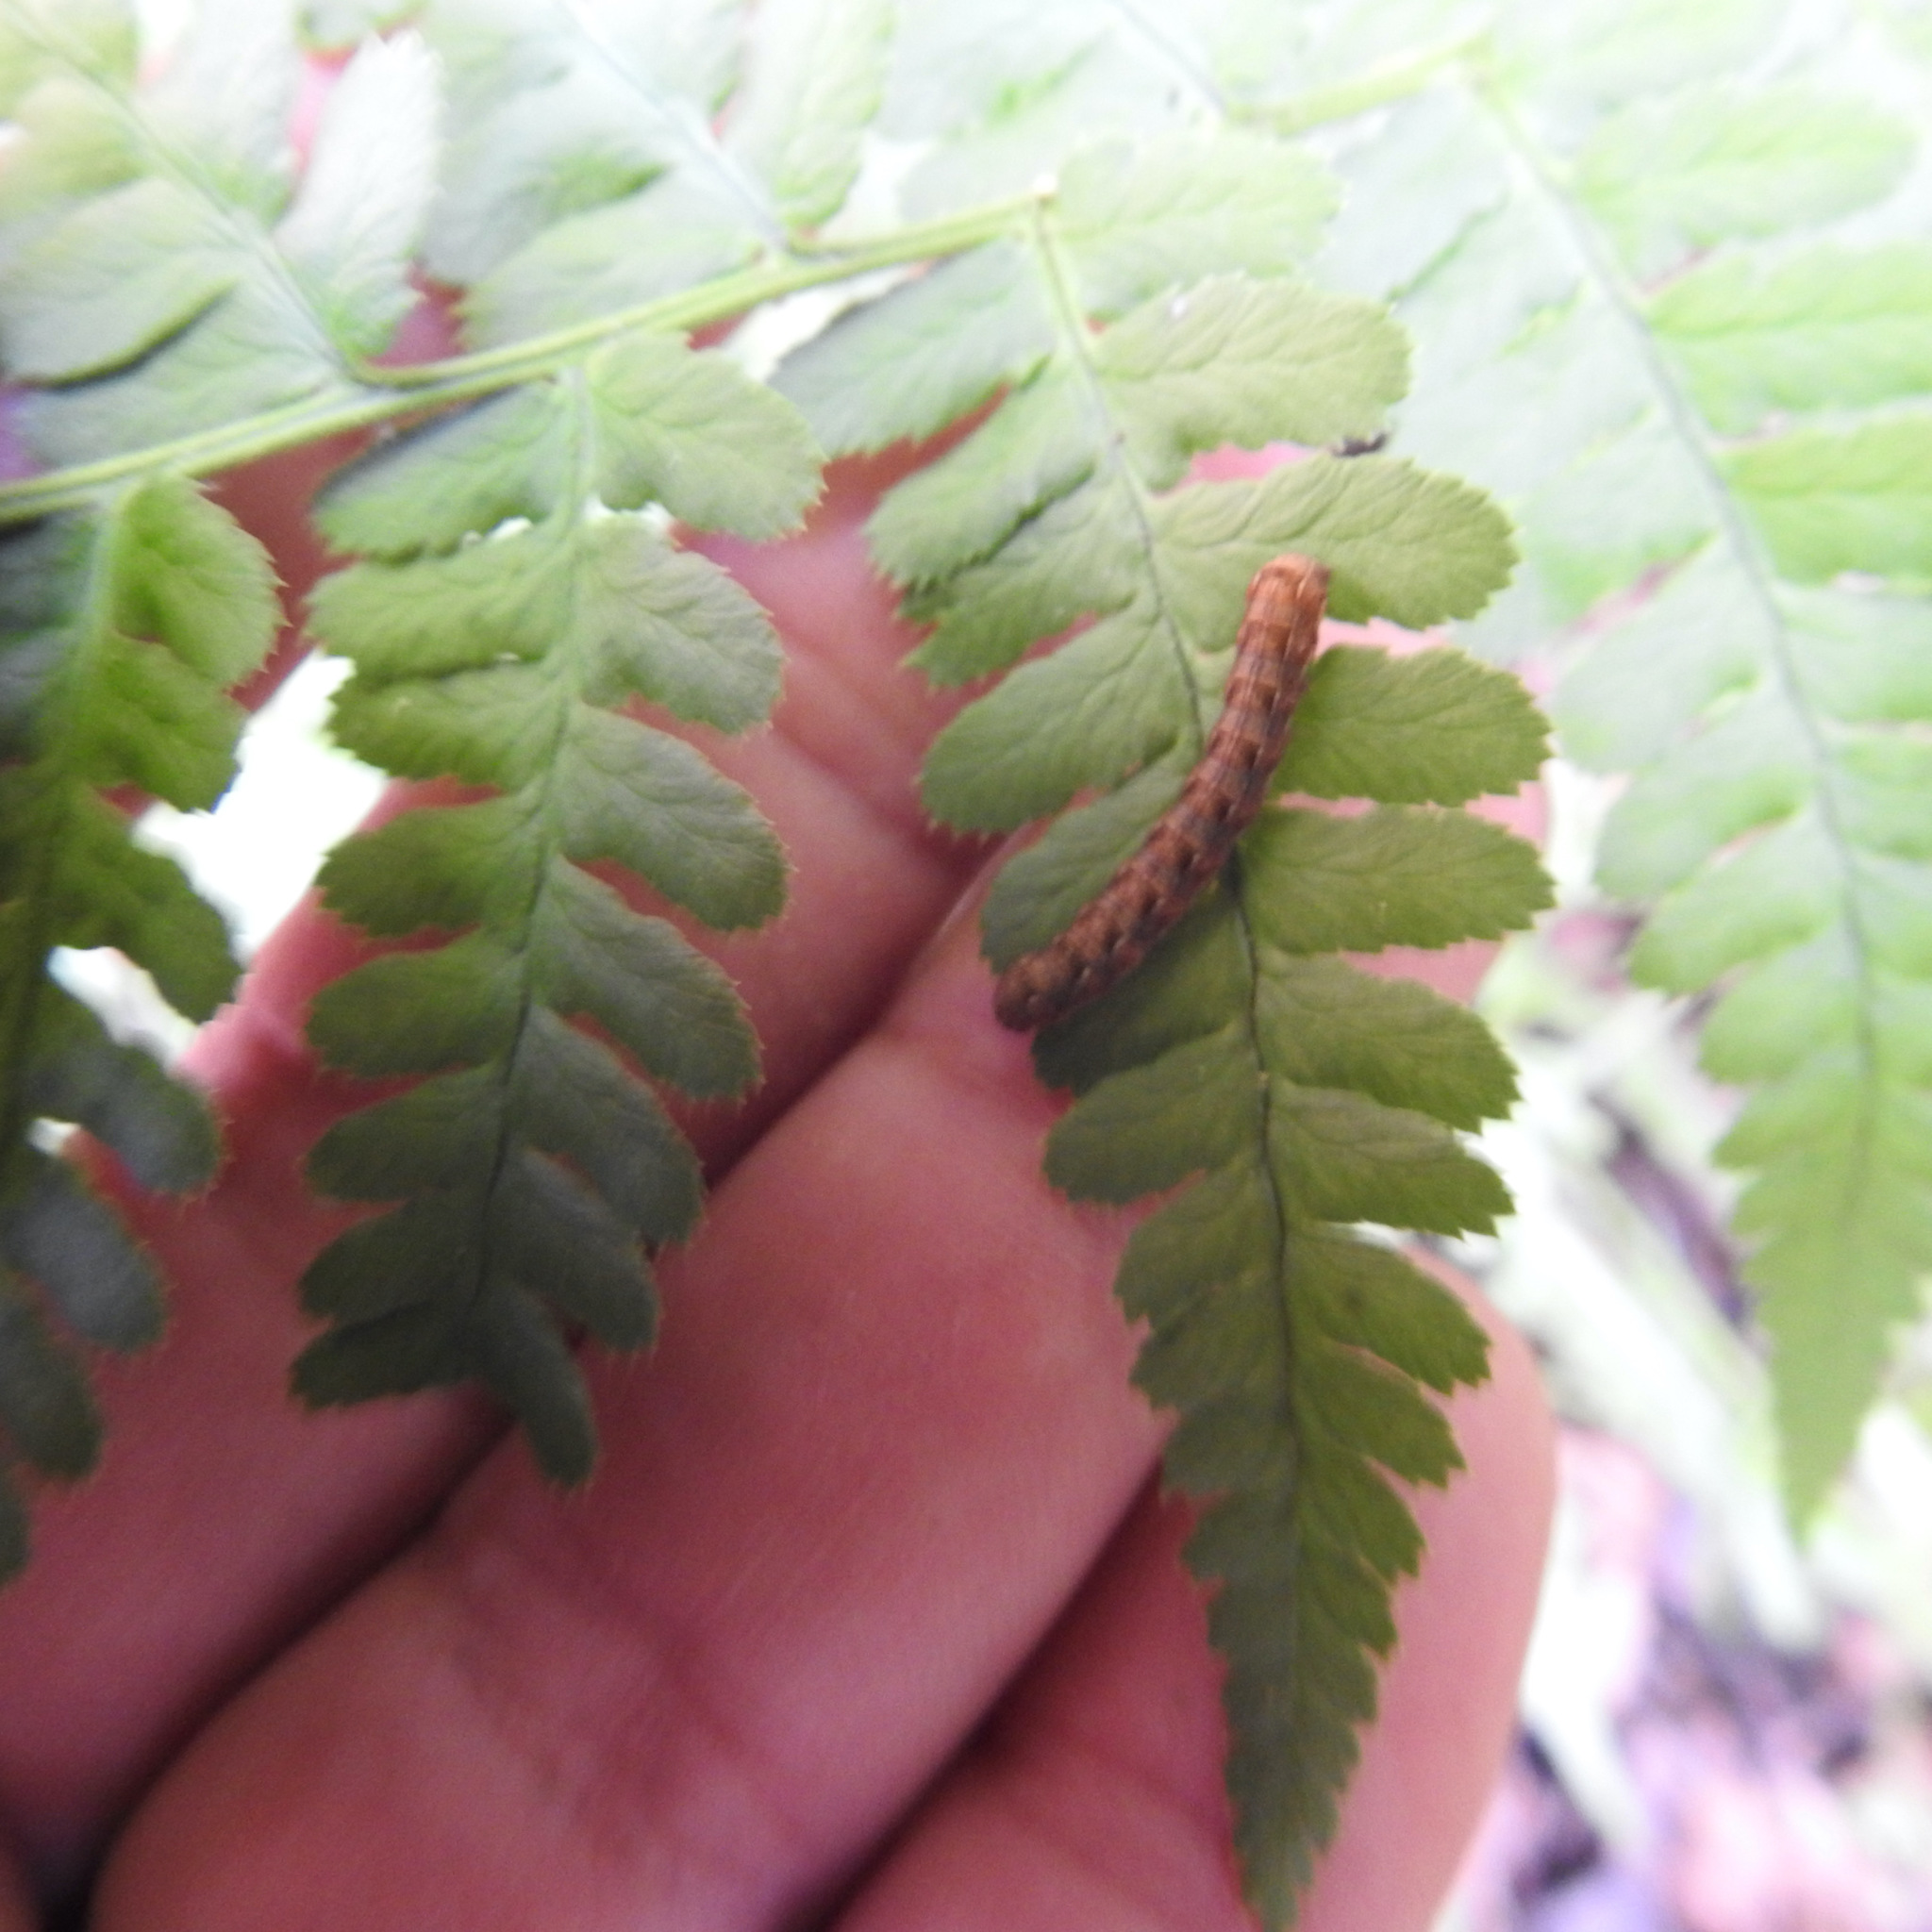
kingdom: Plantae
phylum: Tracheophyta
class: Polypodiopsida
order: Polypodiales
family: Dryopteridaceae
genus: Dryopteris
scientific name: Dryopteris arguta
